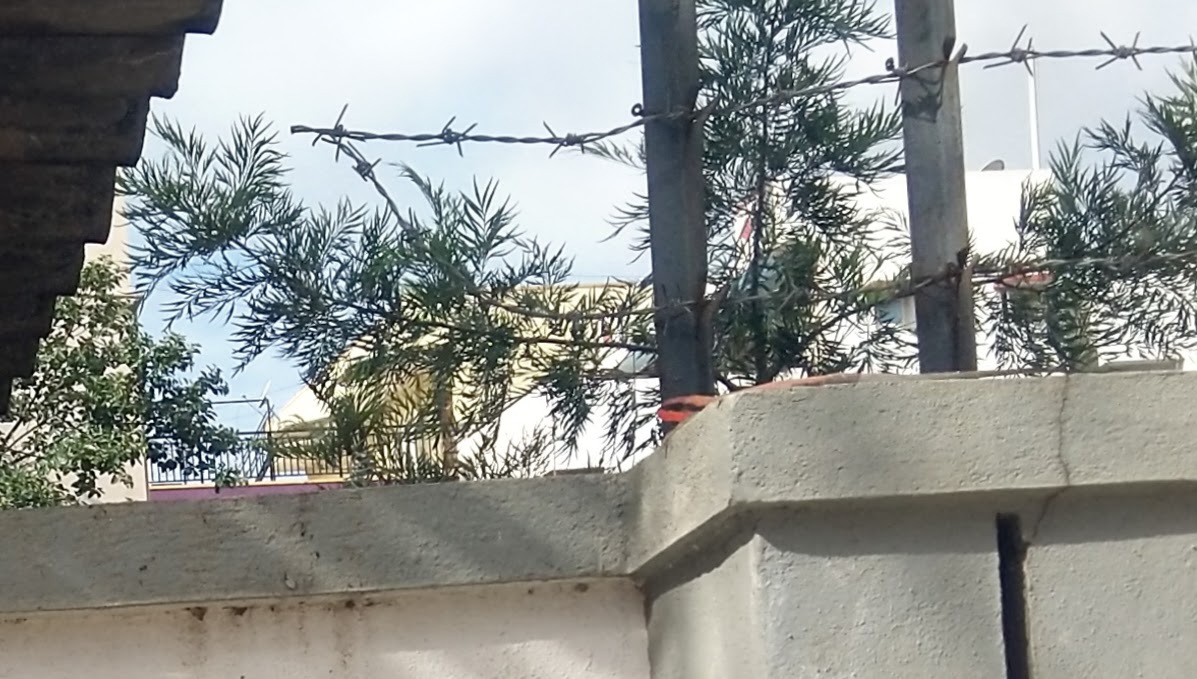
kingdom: Animalia
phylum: Chordata
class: Squamata
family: Agamidae
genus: Psammophilus
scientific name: Psammophilus dorsalis
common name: South indian rock agama
